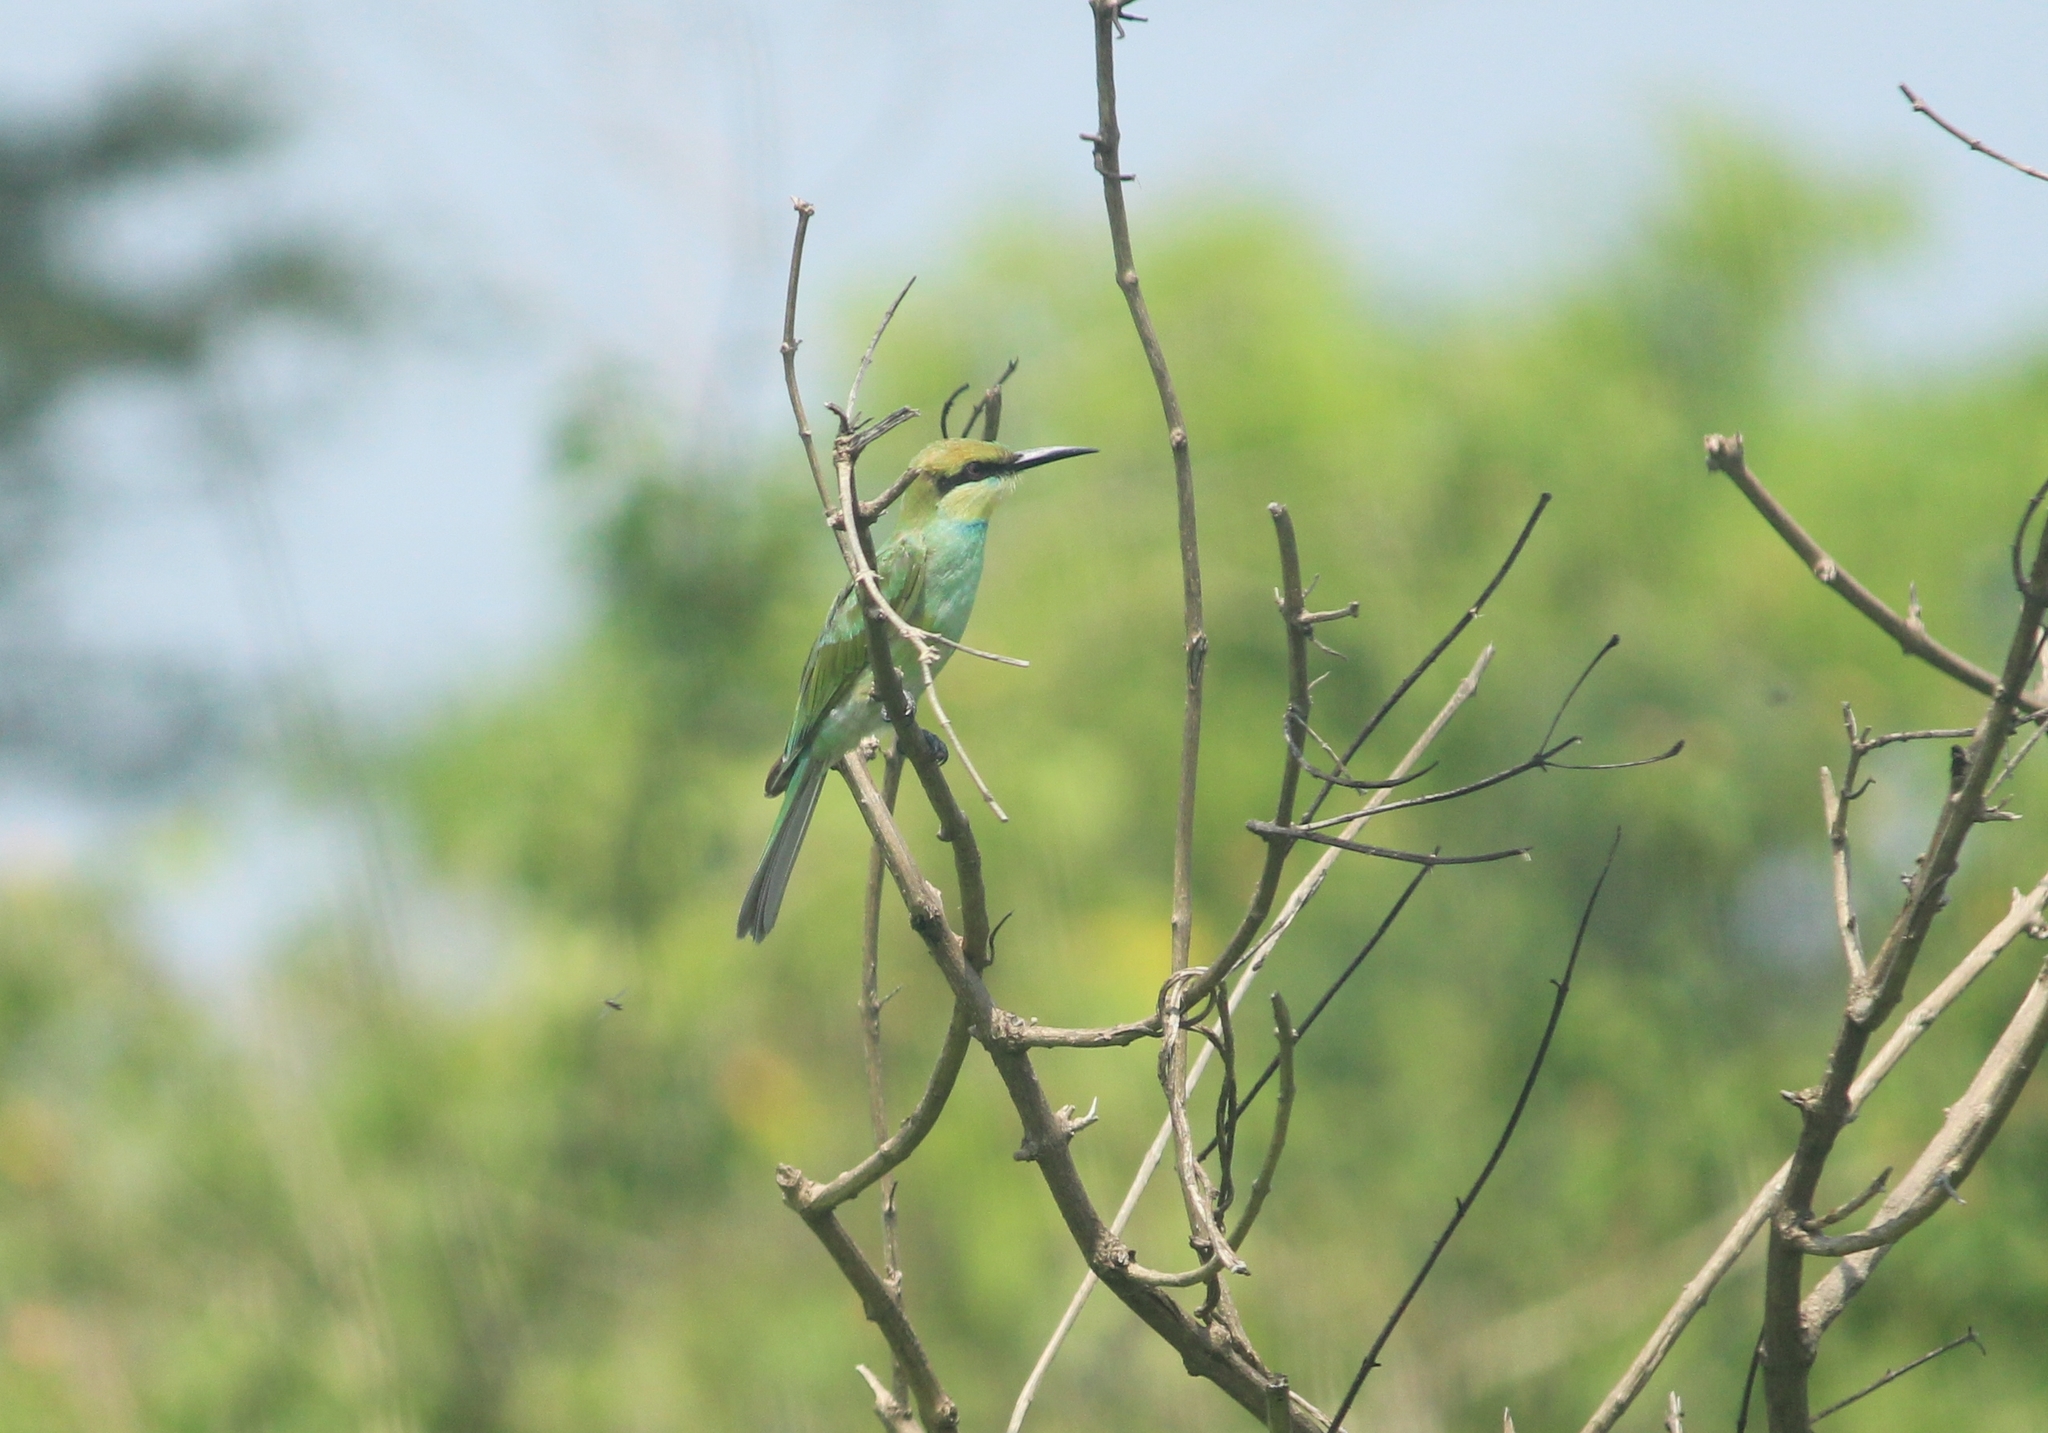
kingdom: Animalia
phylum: Chordata
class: Aves
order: Coraciiformes
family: Meropidae
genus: Merops
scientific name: Merops orientalis
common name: Green bee-eater
